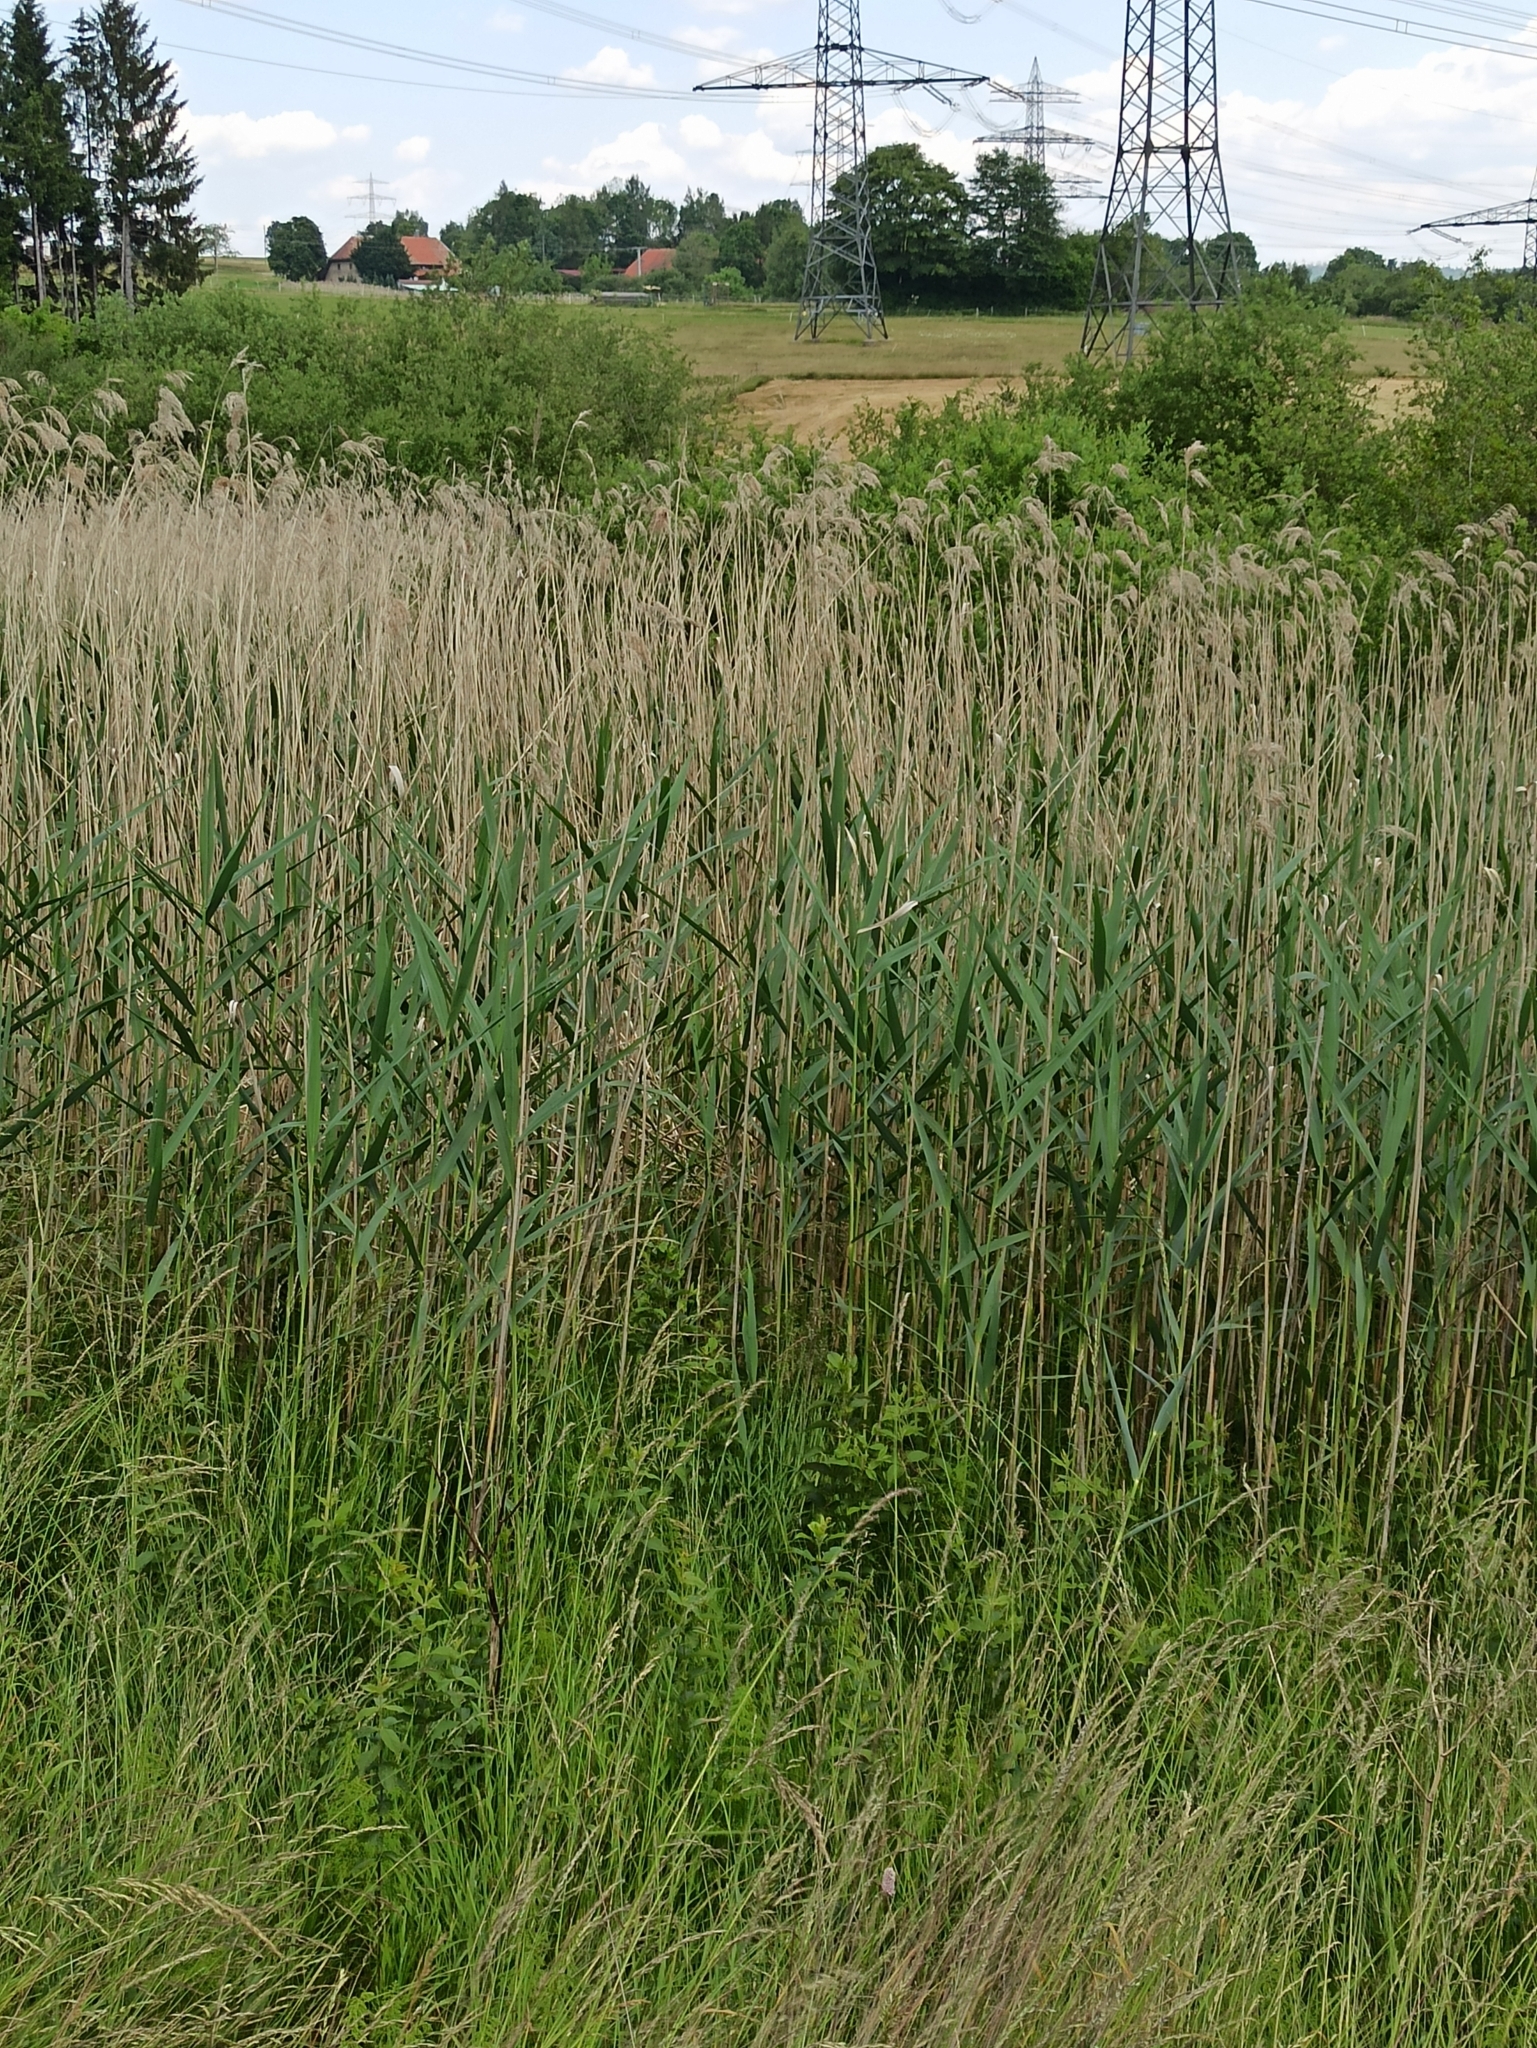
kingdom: Plantae
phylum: Tracheophyta
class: Liliopsida
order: Poales
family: Poaceae
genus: Phragmites
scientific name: Phragmites australis
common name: Common reed
